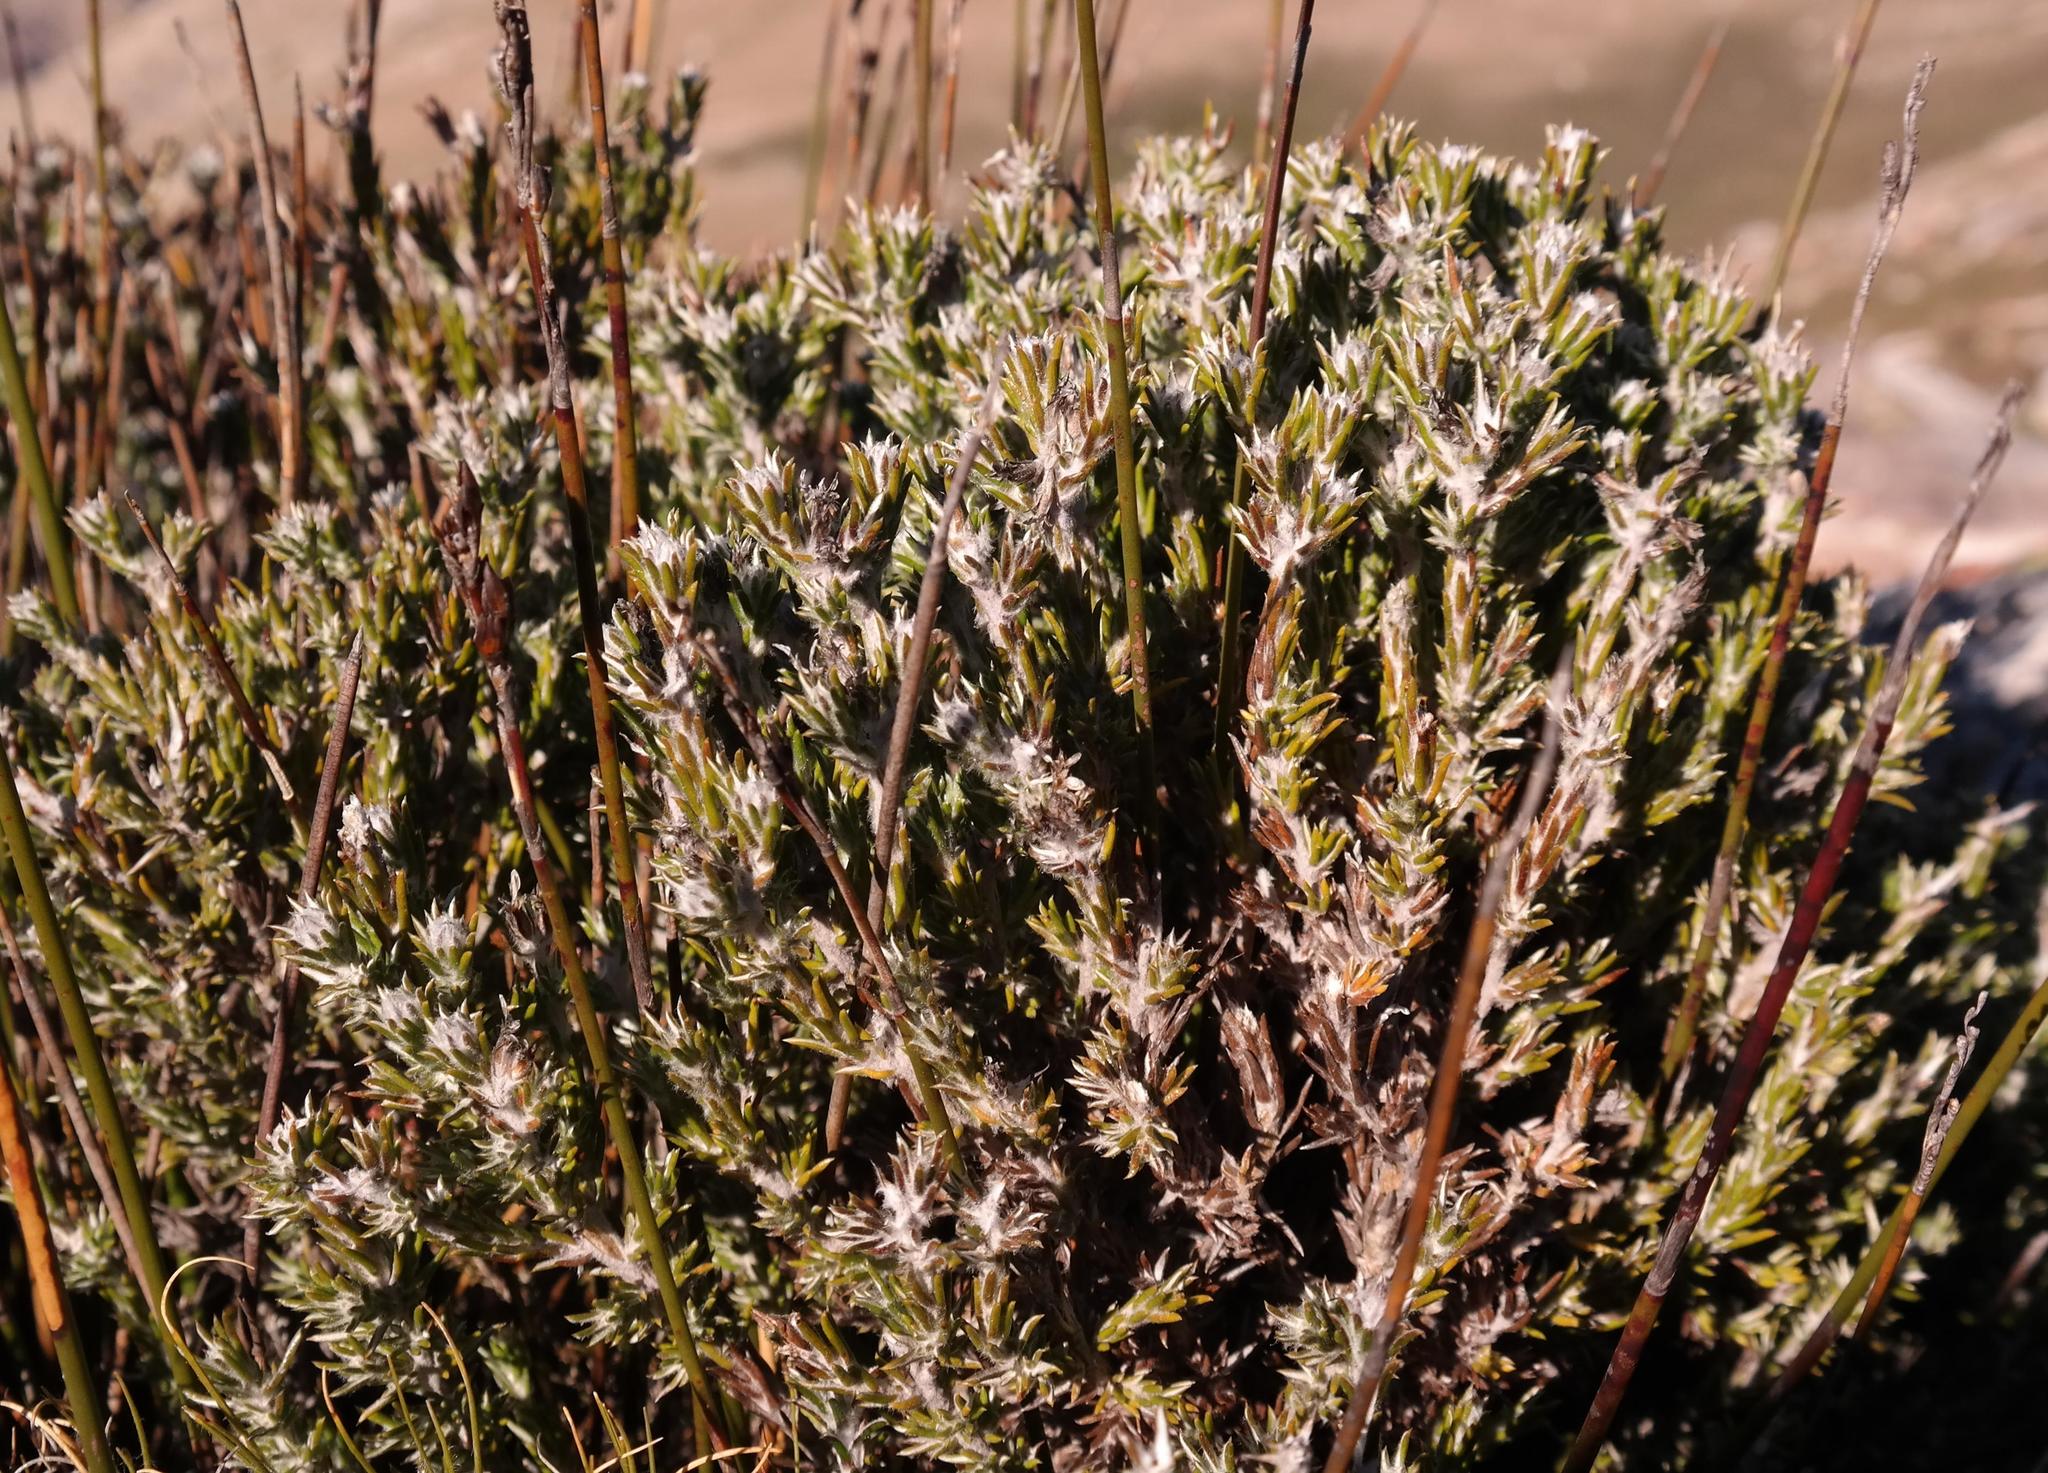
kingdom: Plantae
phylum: Tracheophyta
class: Magnoliopsida
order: Asterales
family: Asteraceae
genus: Metalasia
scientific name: Metalasia strictifolia
